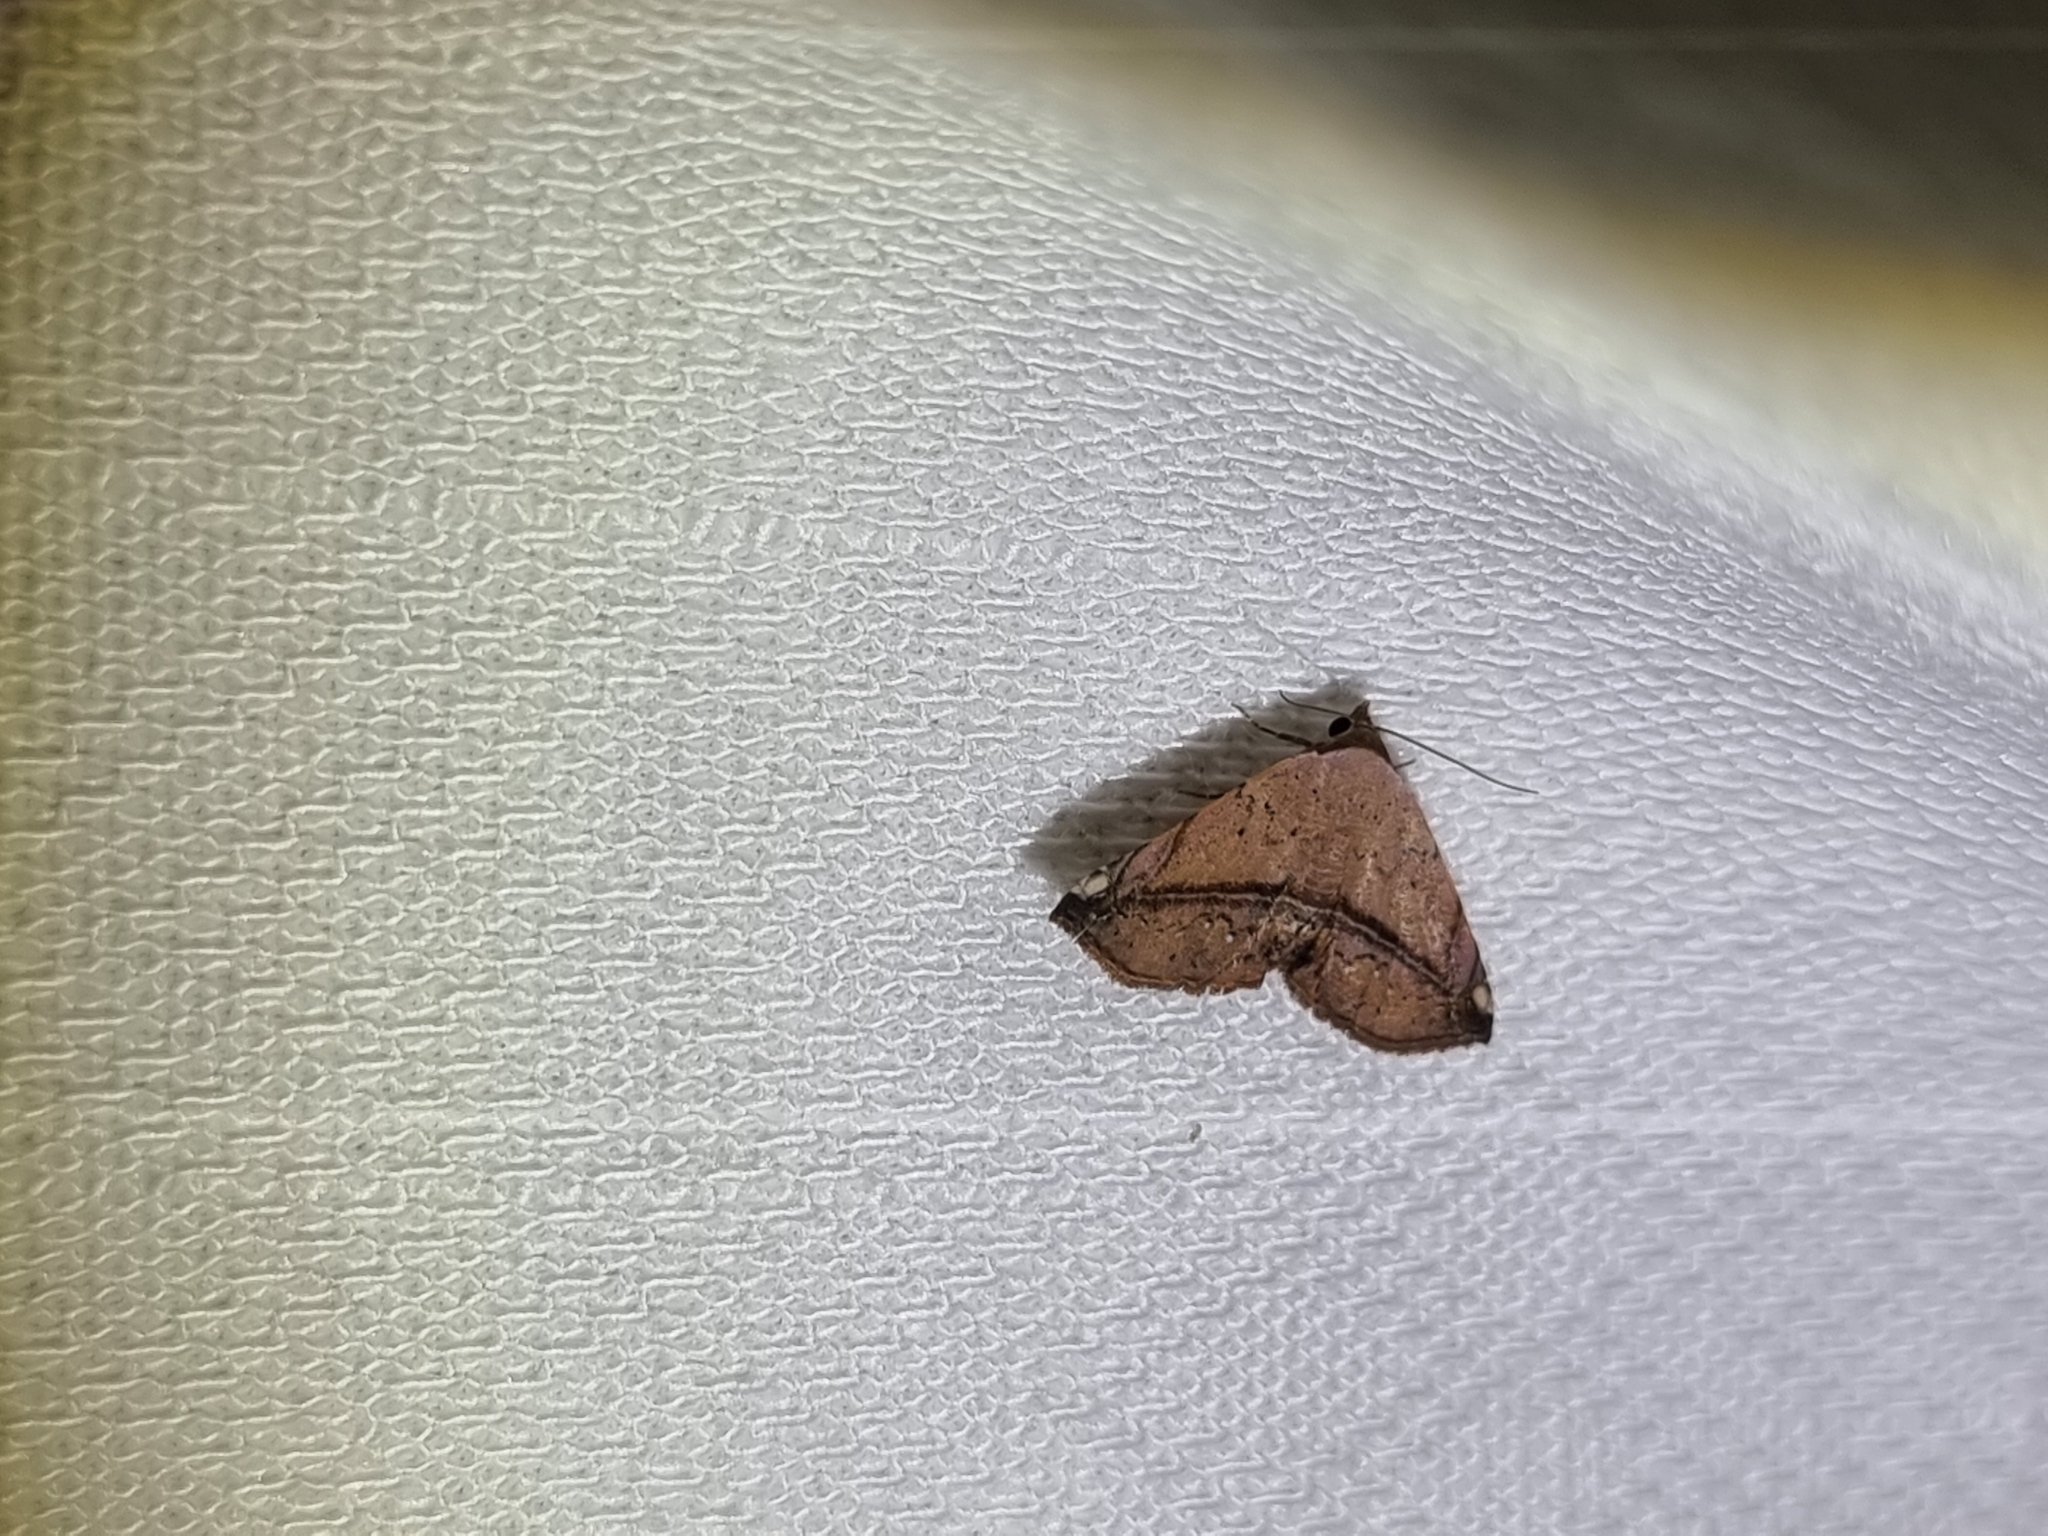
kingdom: Animalia
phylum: Arthropoda
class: Insecta
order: Lepidoptera
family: Noctuidae
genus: Eublemma
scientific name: Eublemma abrupta
